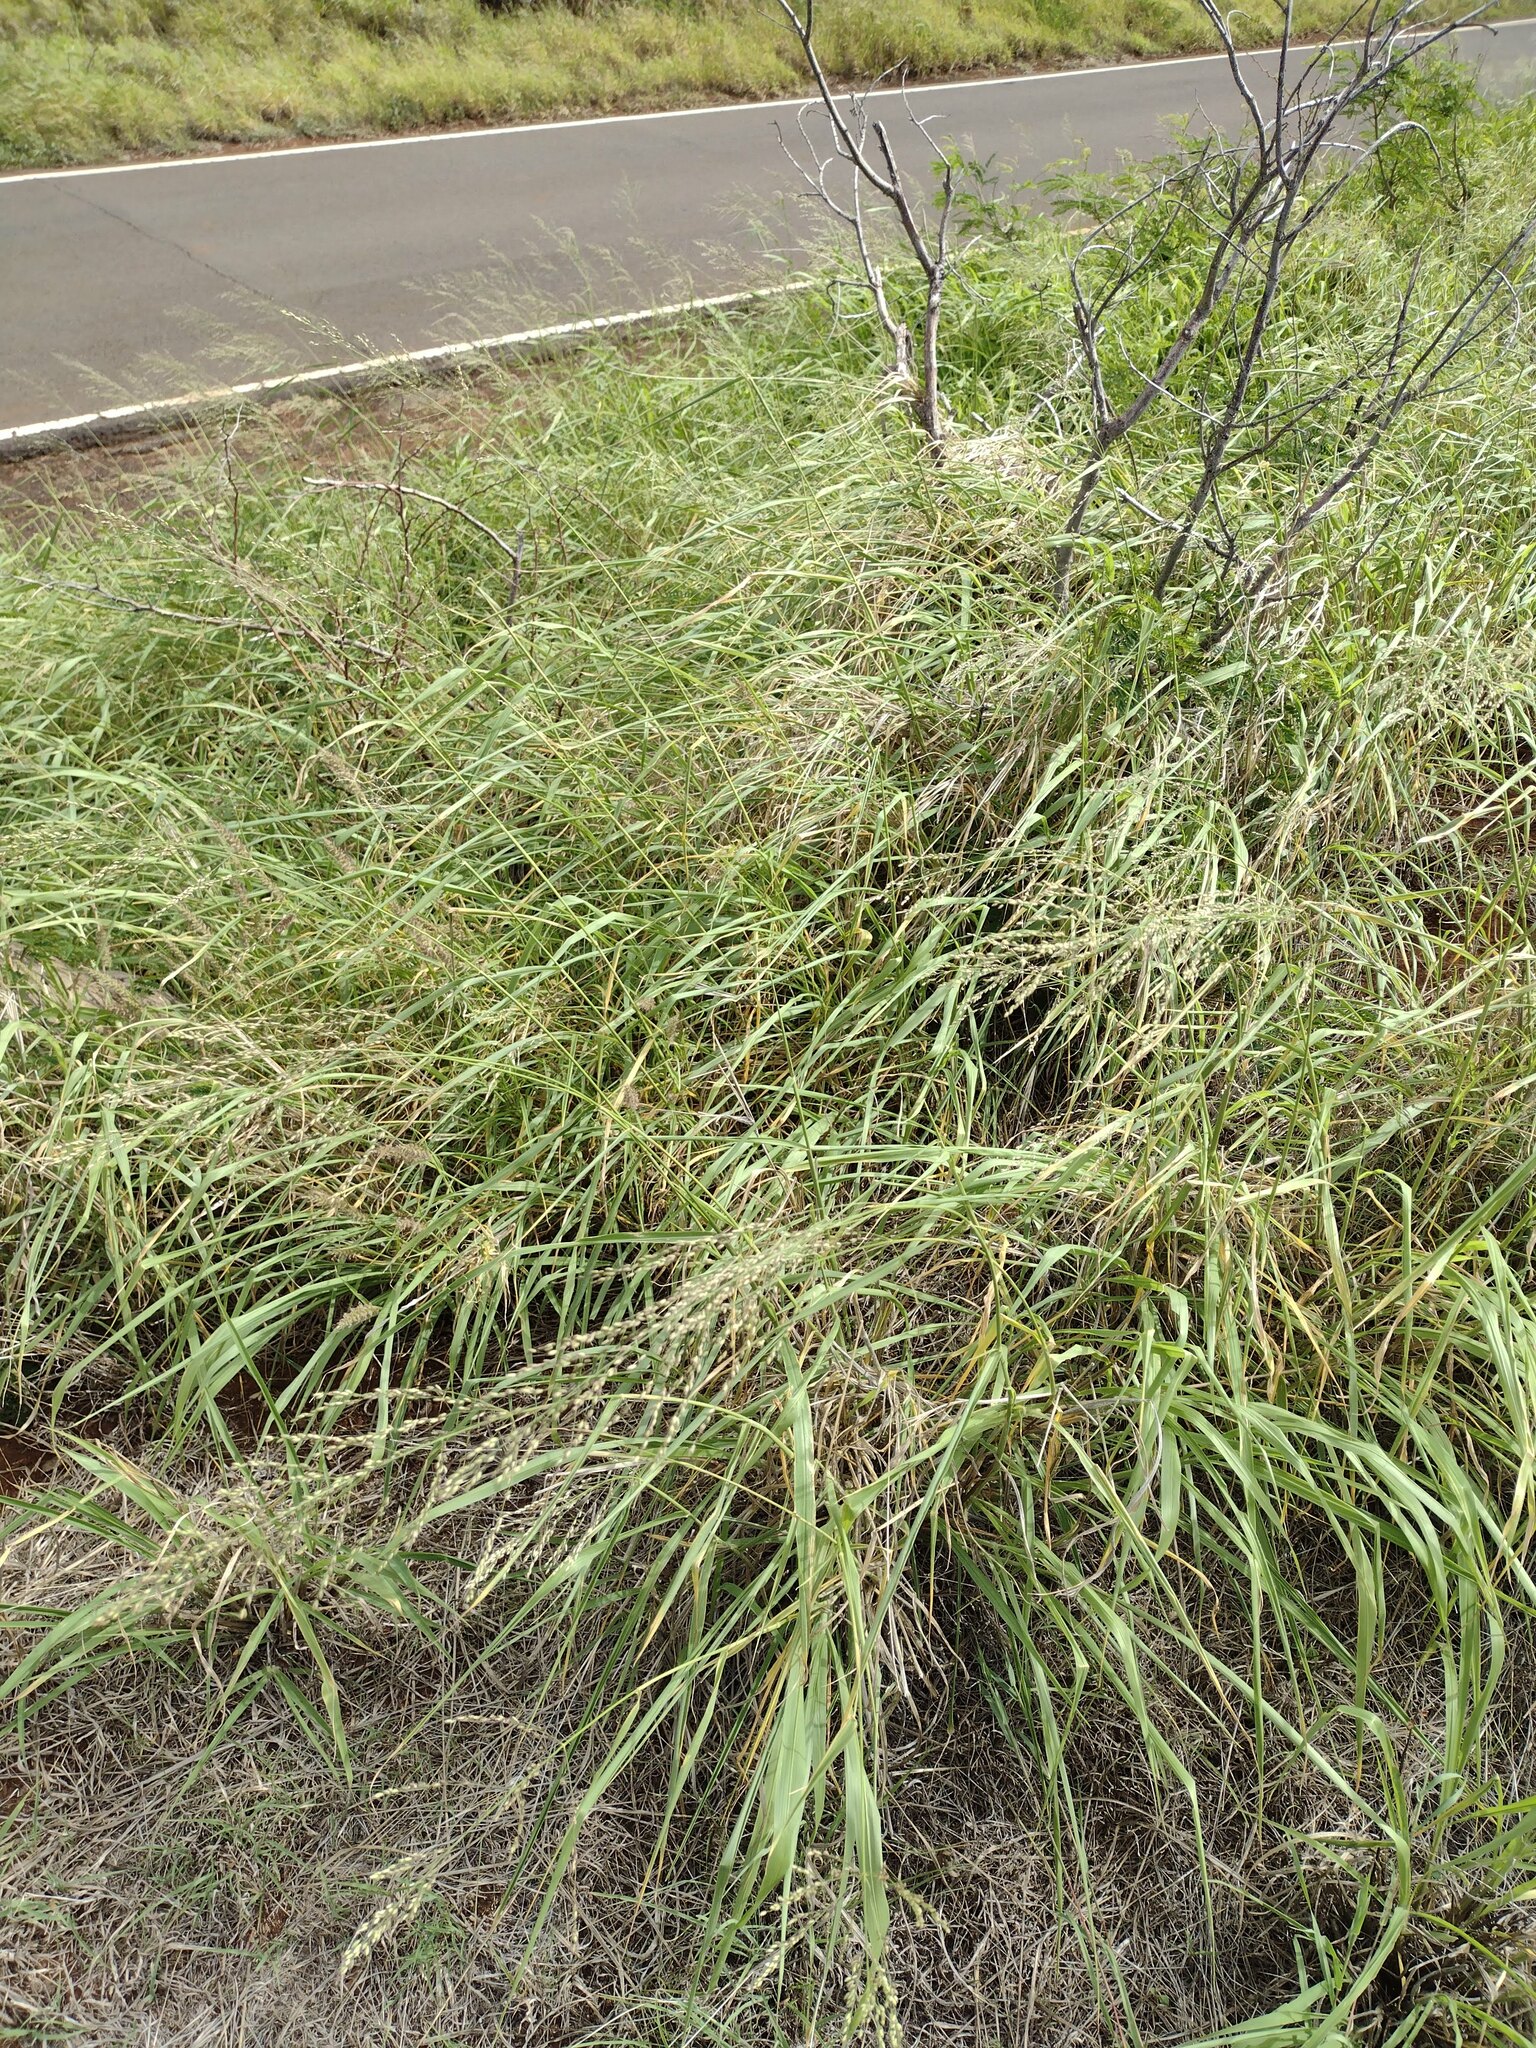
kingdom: Plantae
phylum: Tracheophyta
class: Liliopsida
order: Poales
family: Poaceae
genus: Megathyrsus
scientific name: Megathyrsus maximus
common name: Guineagrass
